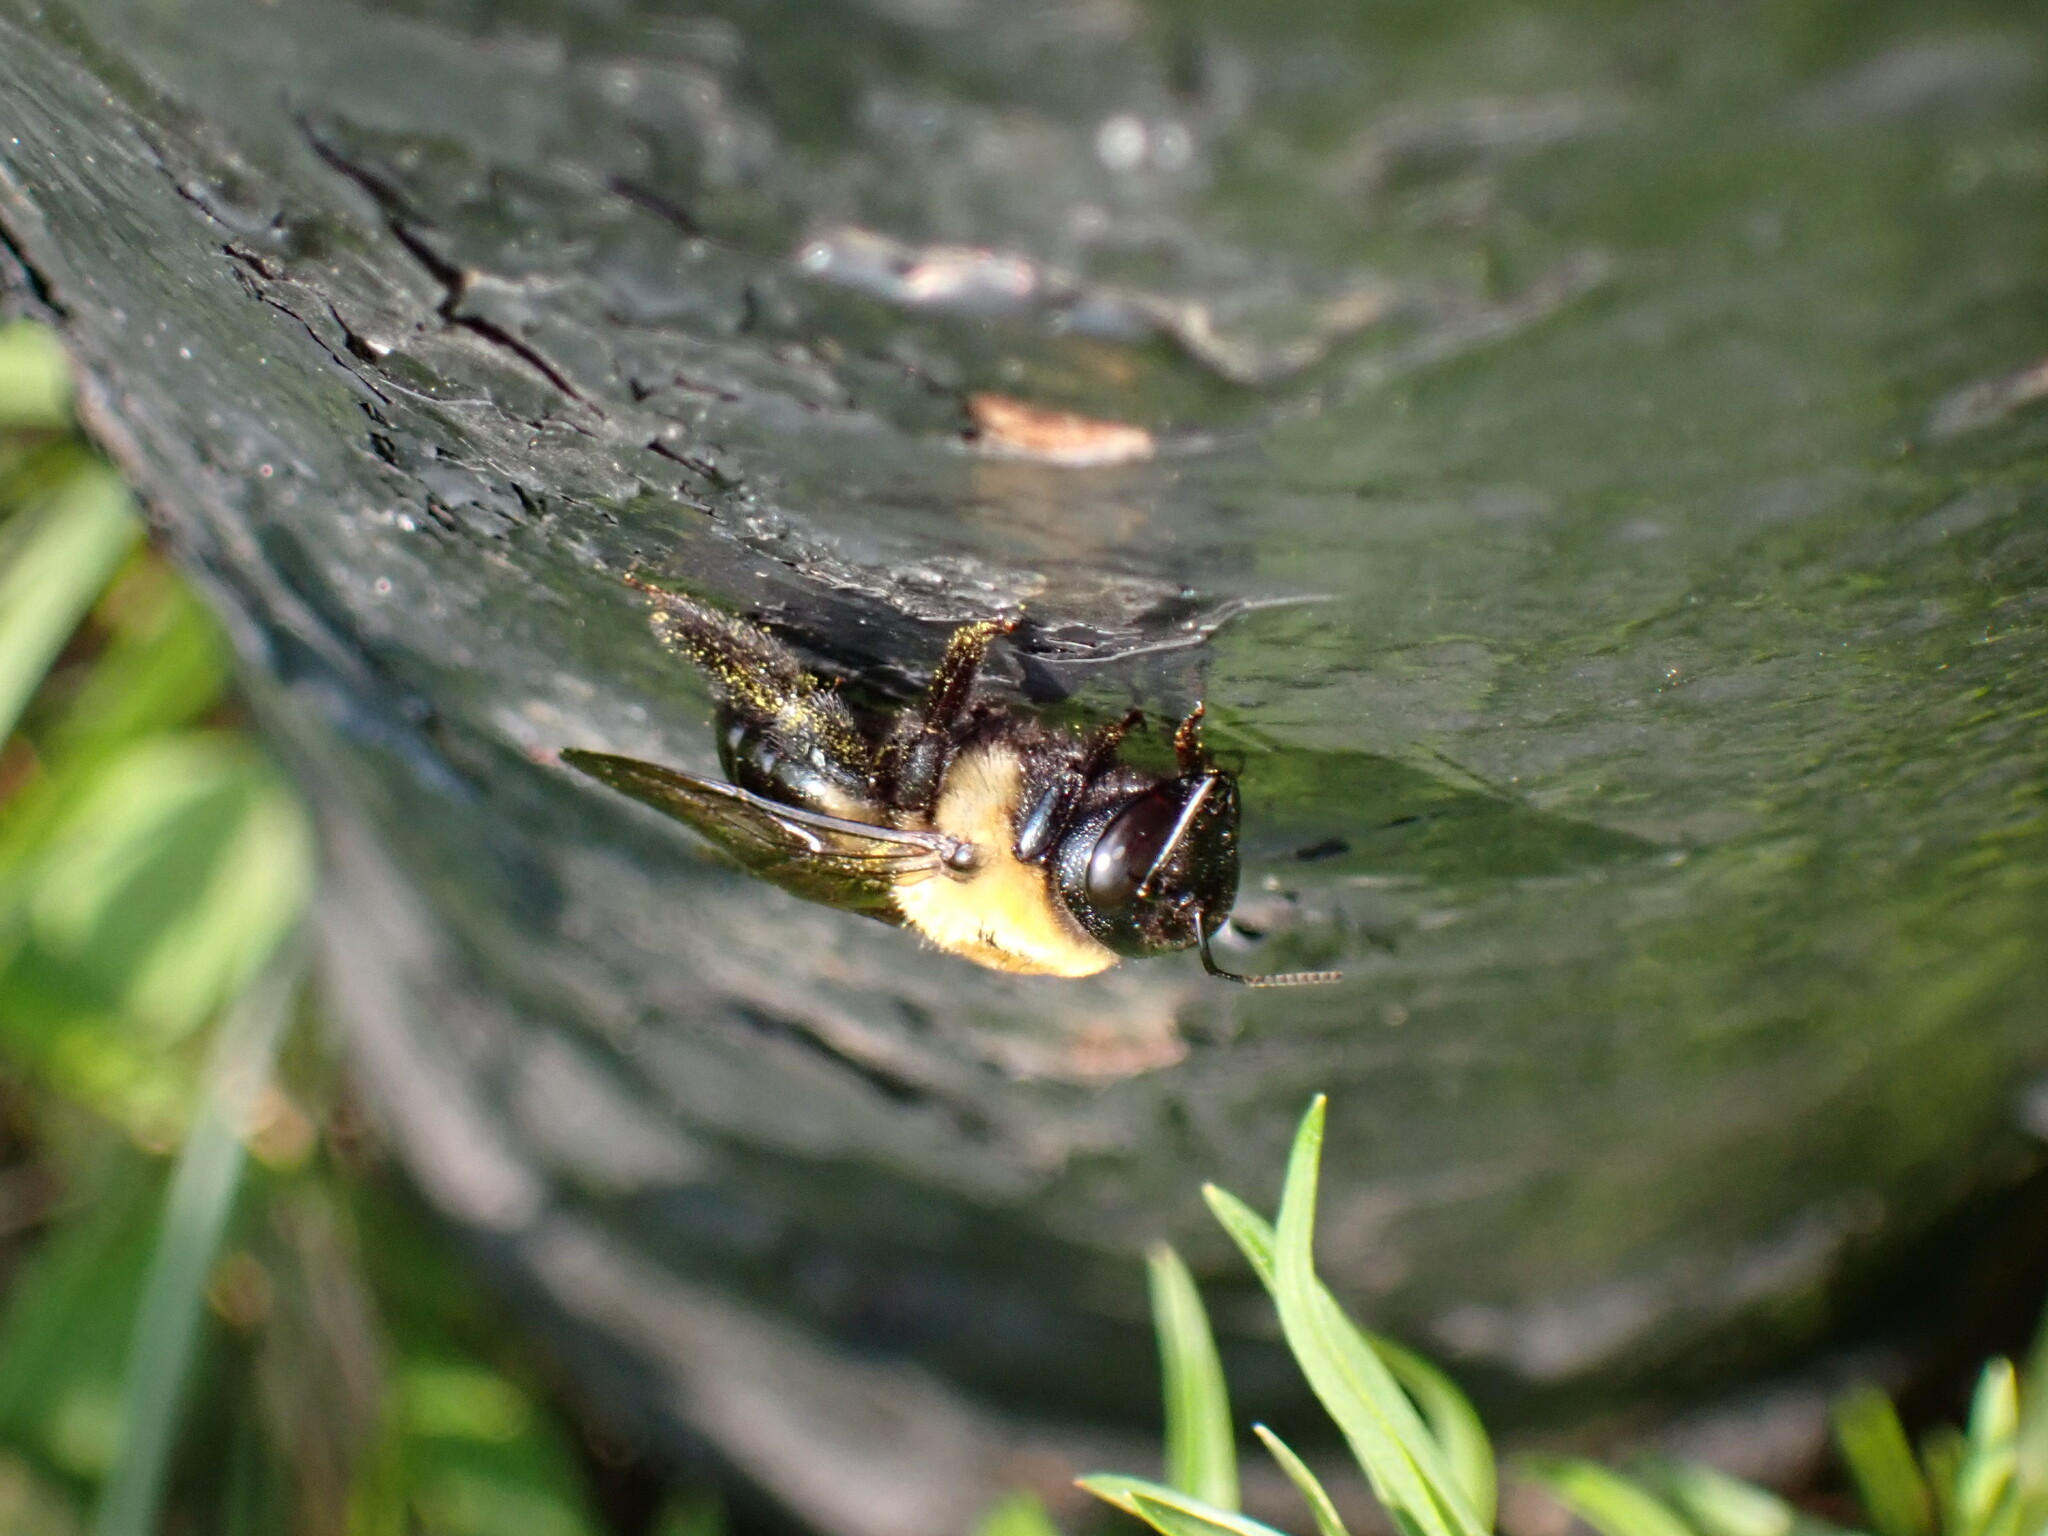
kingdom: Animalia
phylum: Arthropoda
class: Insecta
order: Hymenoptera
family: Apidae
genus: Xylocopa
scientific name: Xylocopa virginica
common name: Carpenter bee
